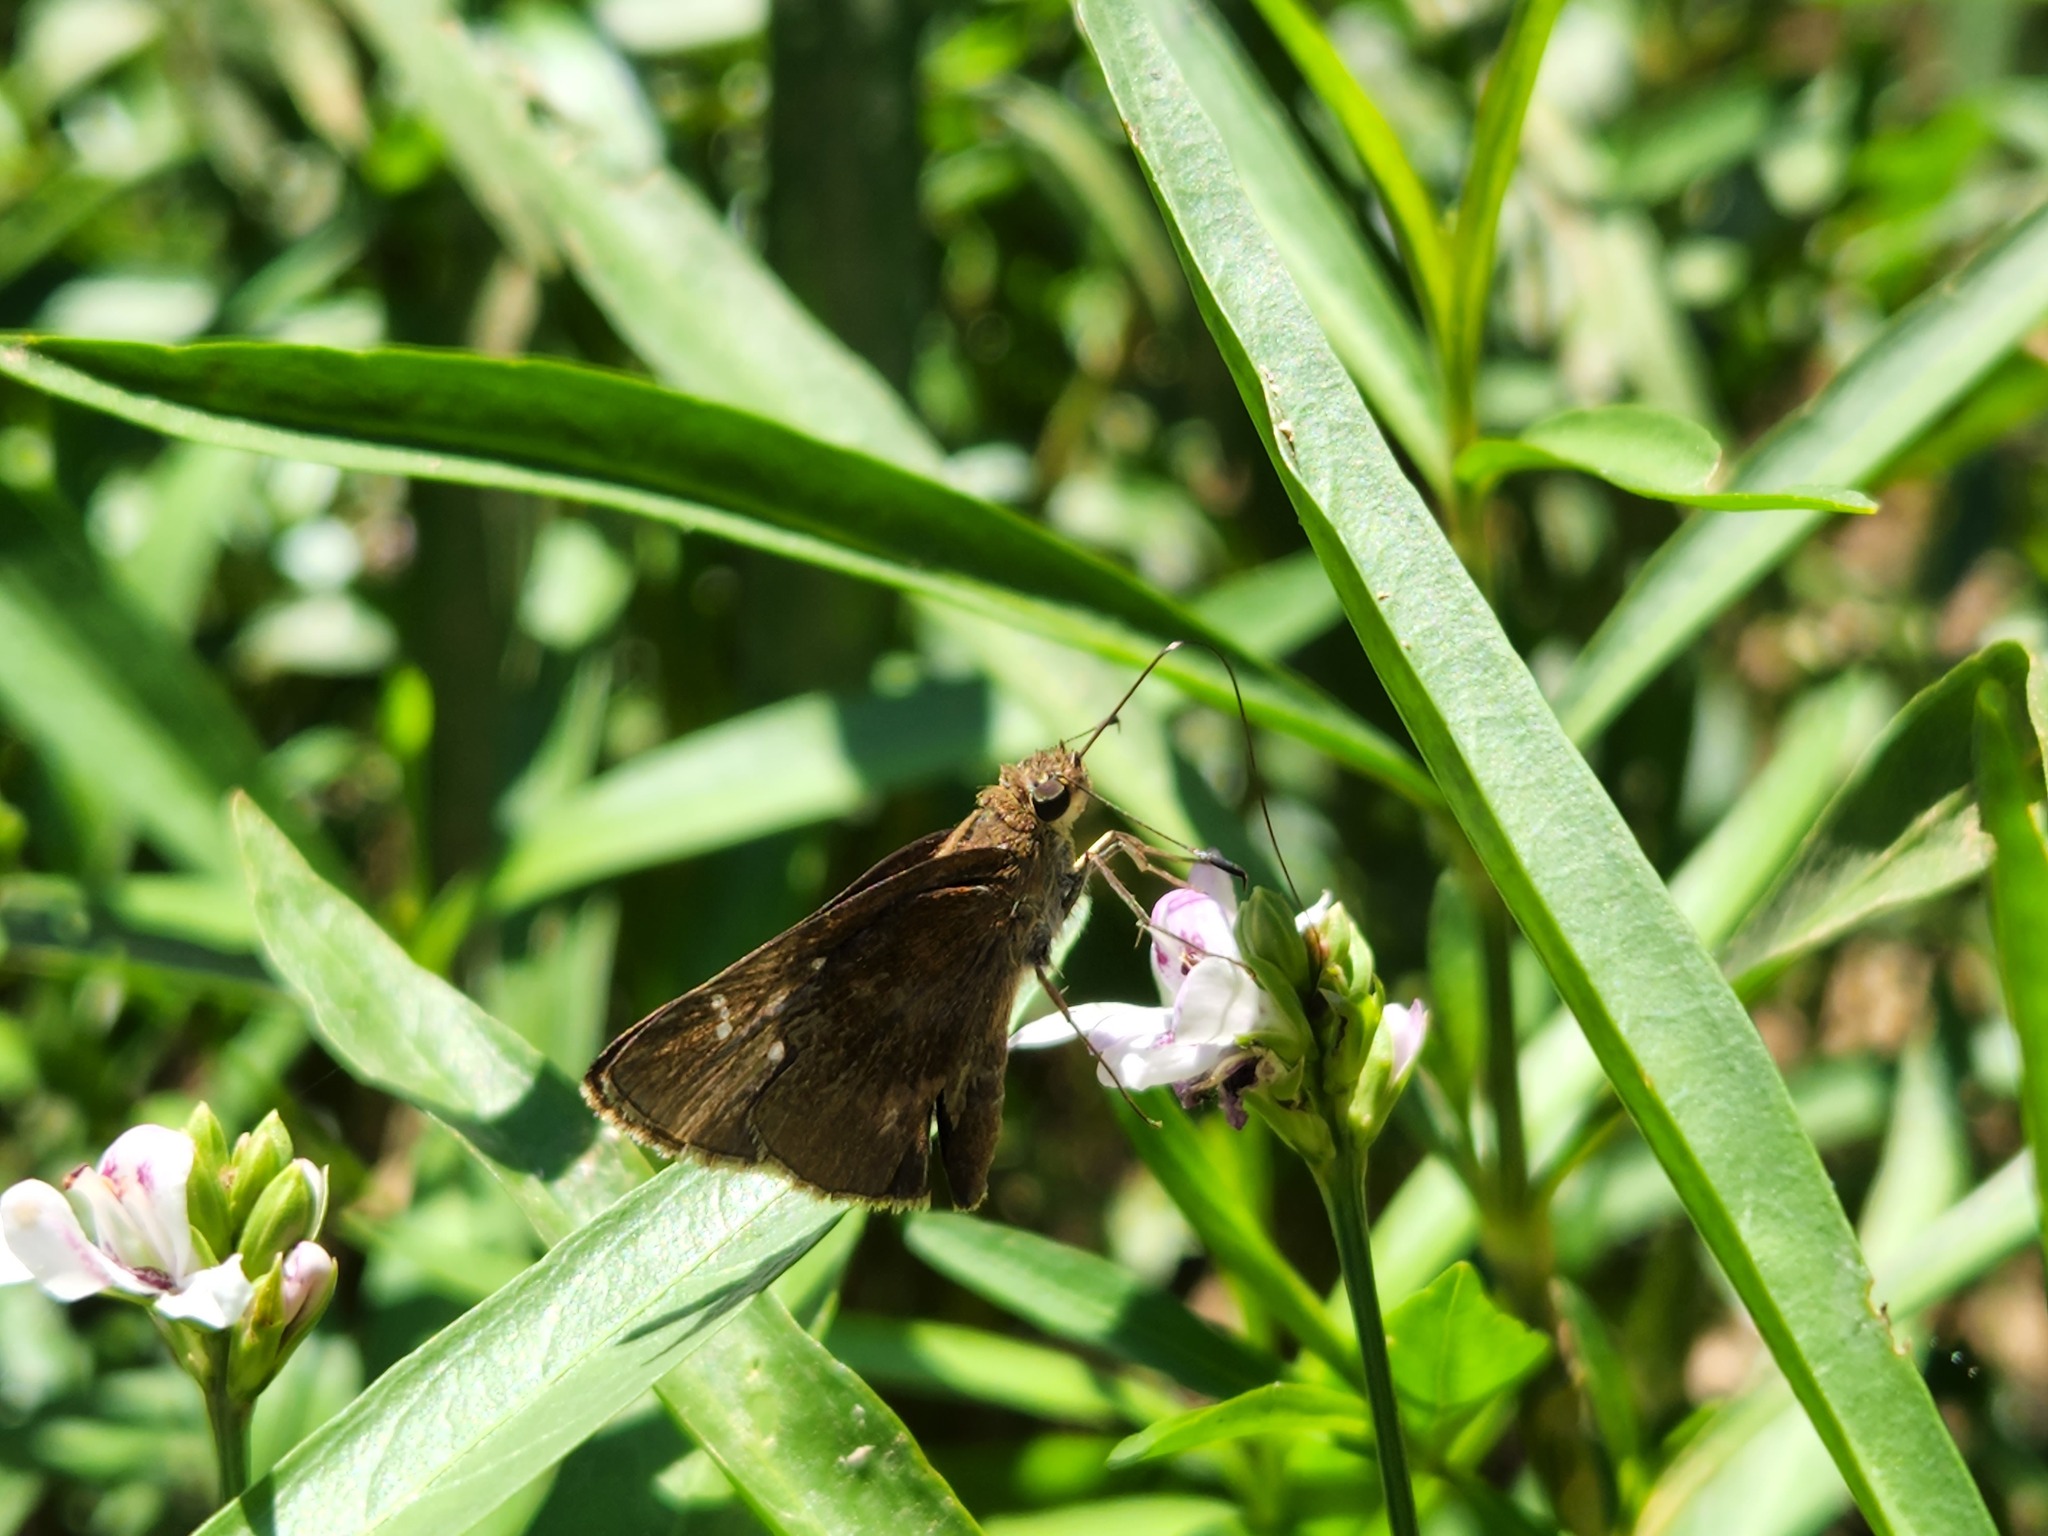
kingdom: Animalia
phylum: Arthropoda
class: Insecta
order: Lepidoptera
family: Hesperiidae
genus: Lerema
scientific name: Lerema accius
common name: Clouded skipper
